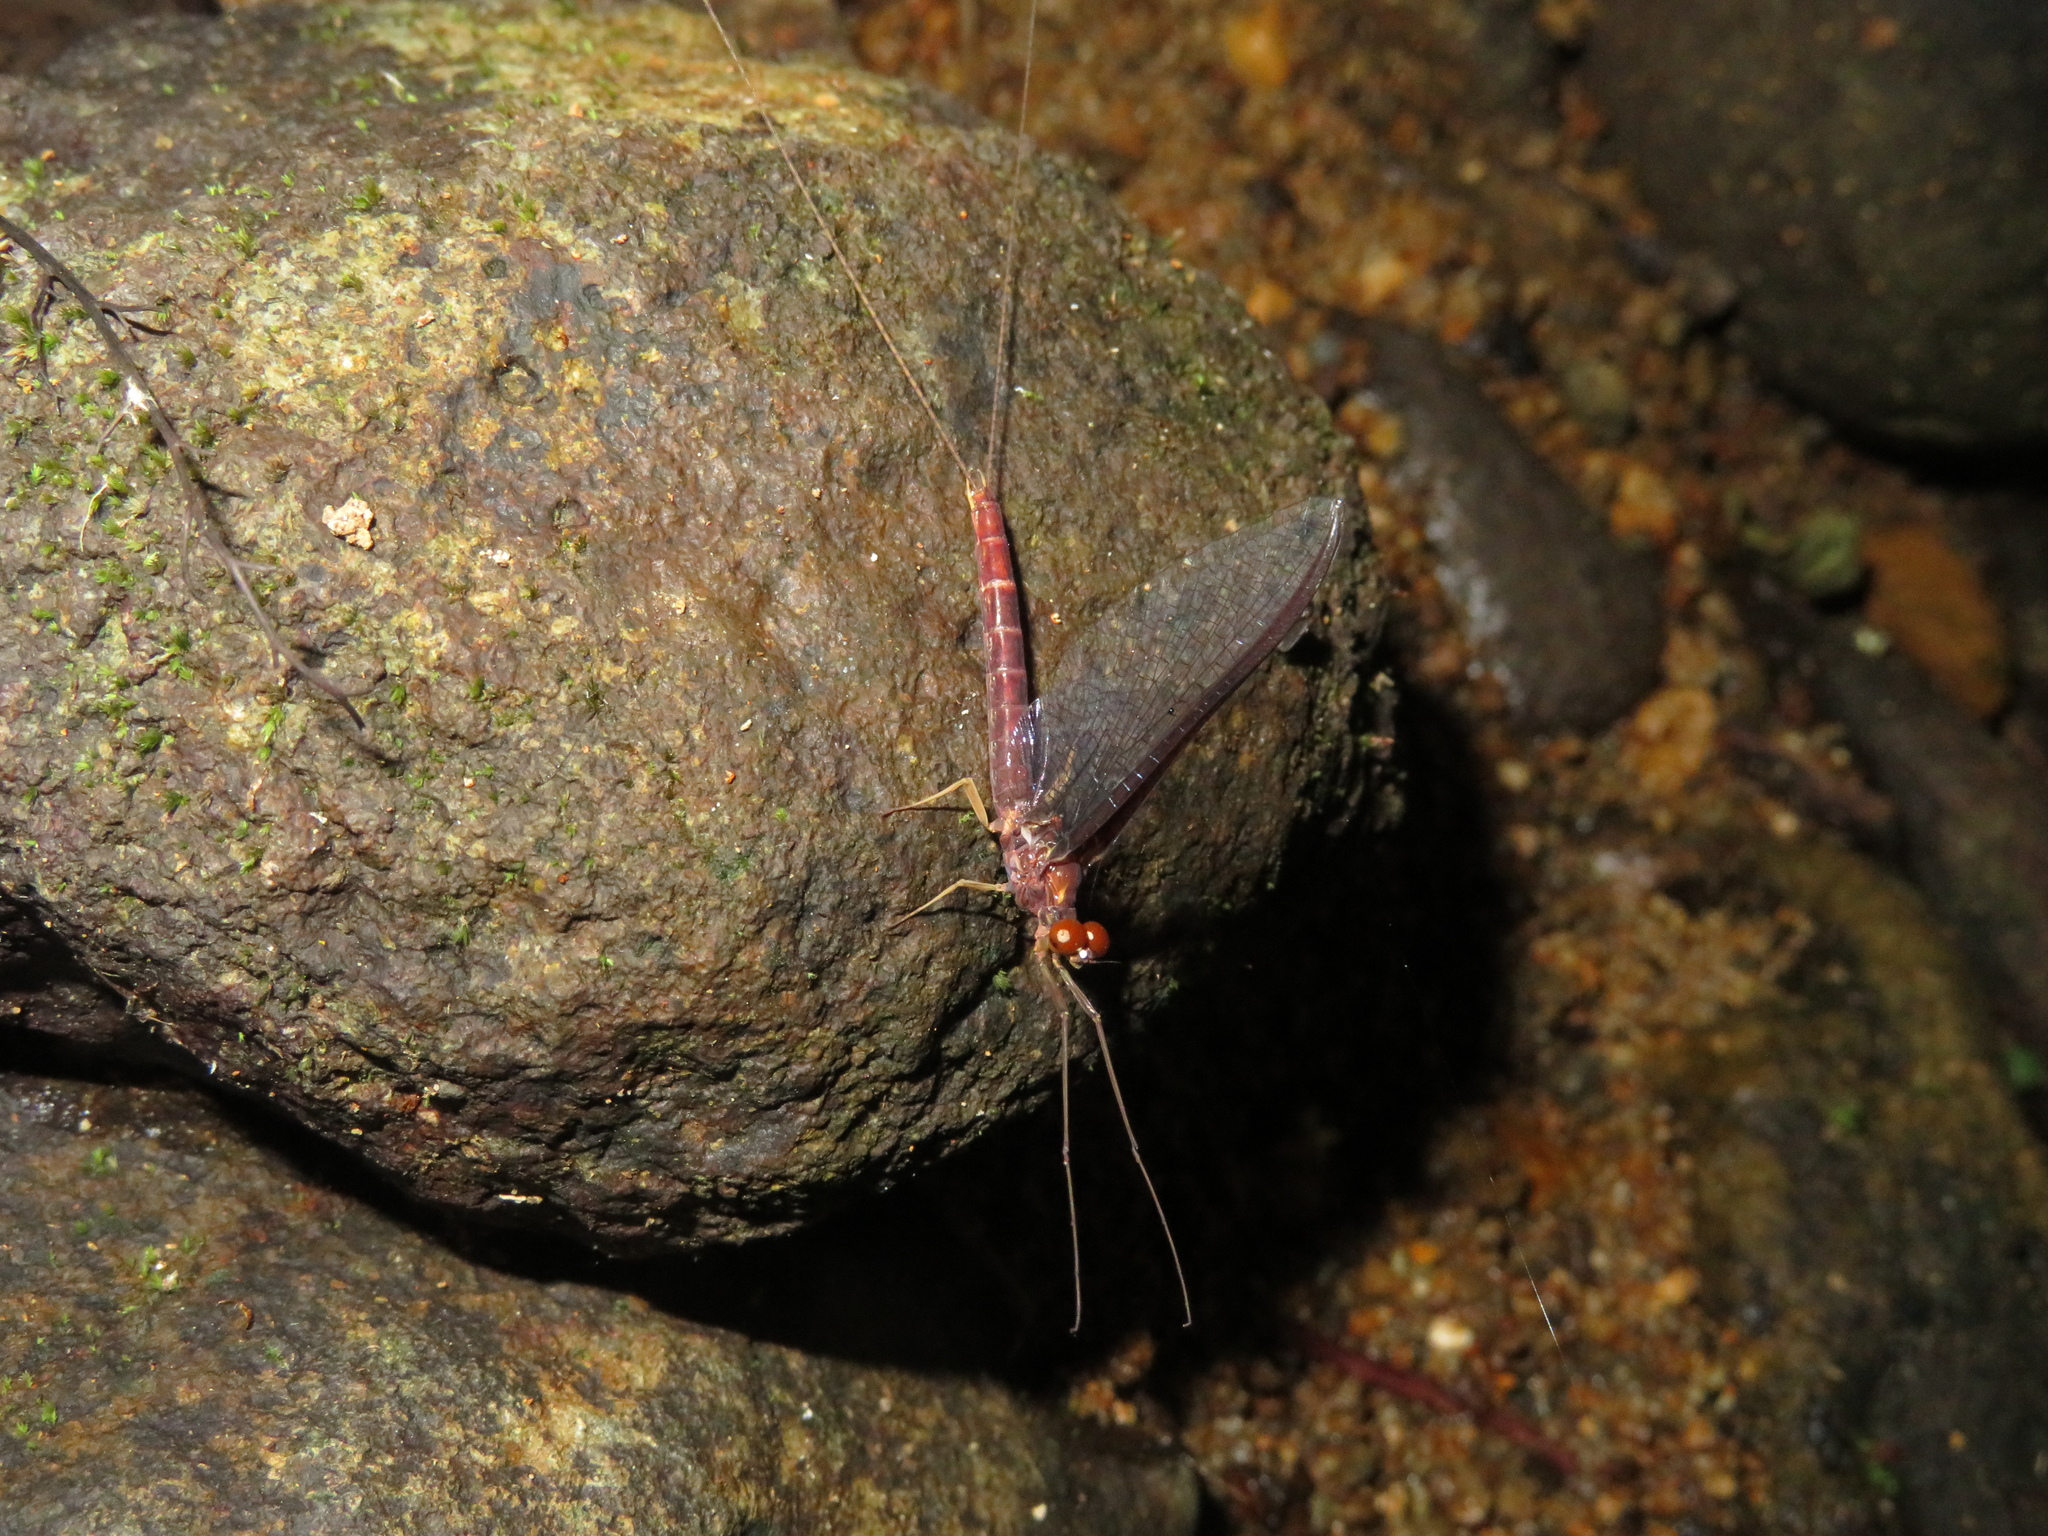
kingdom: Animalia
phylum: Arthropoda
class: Insecta
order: Ephemeroptera
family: Ichthybotidae
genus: Ichthybotus
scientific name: Ichthybotus hudsoni
